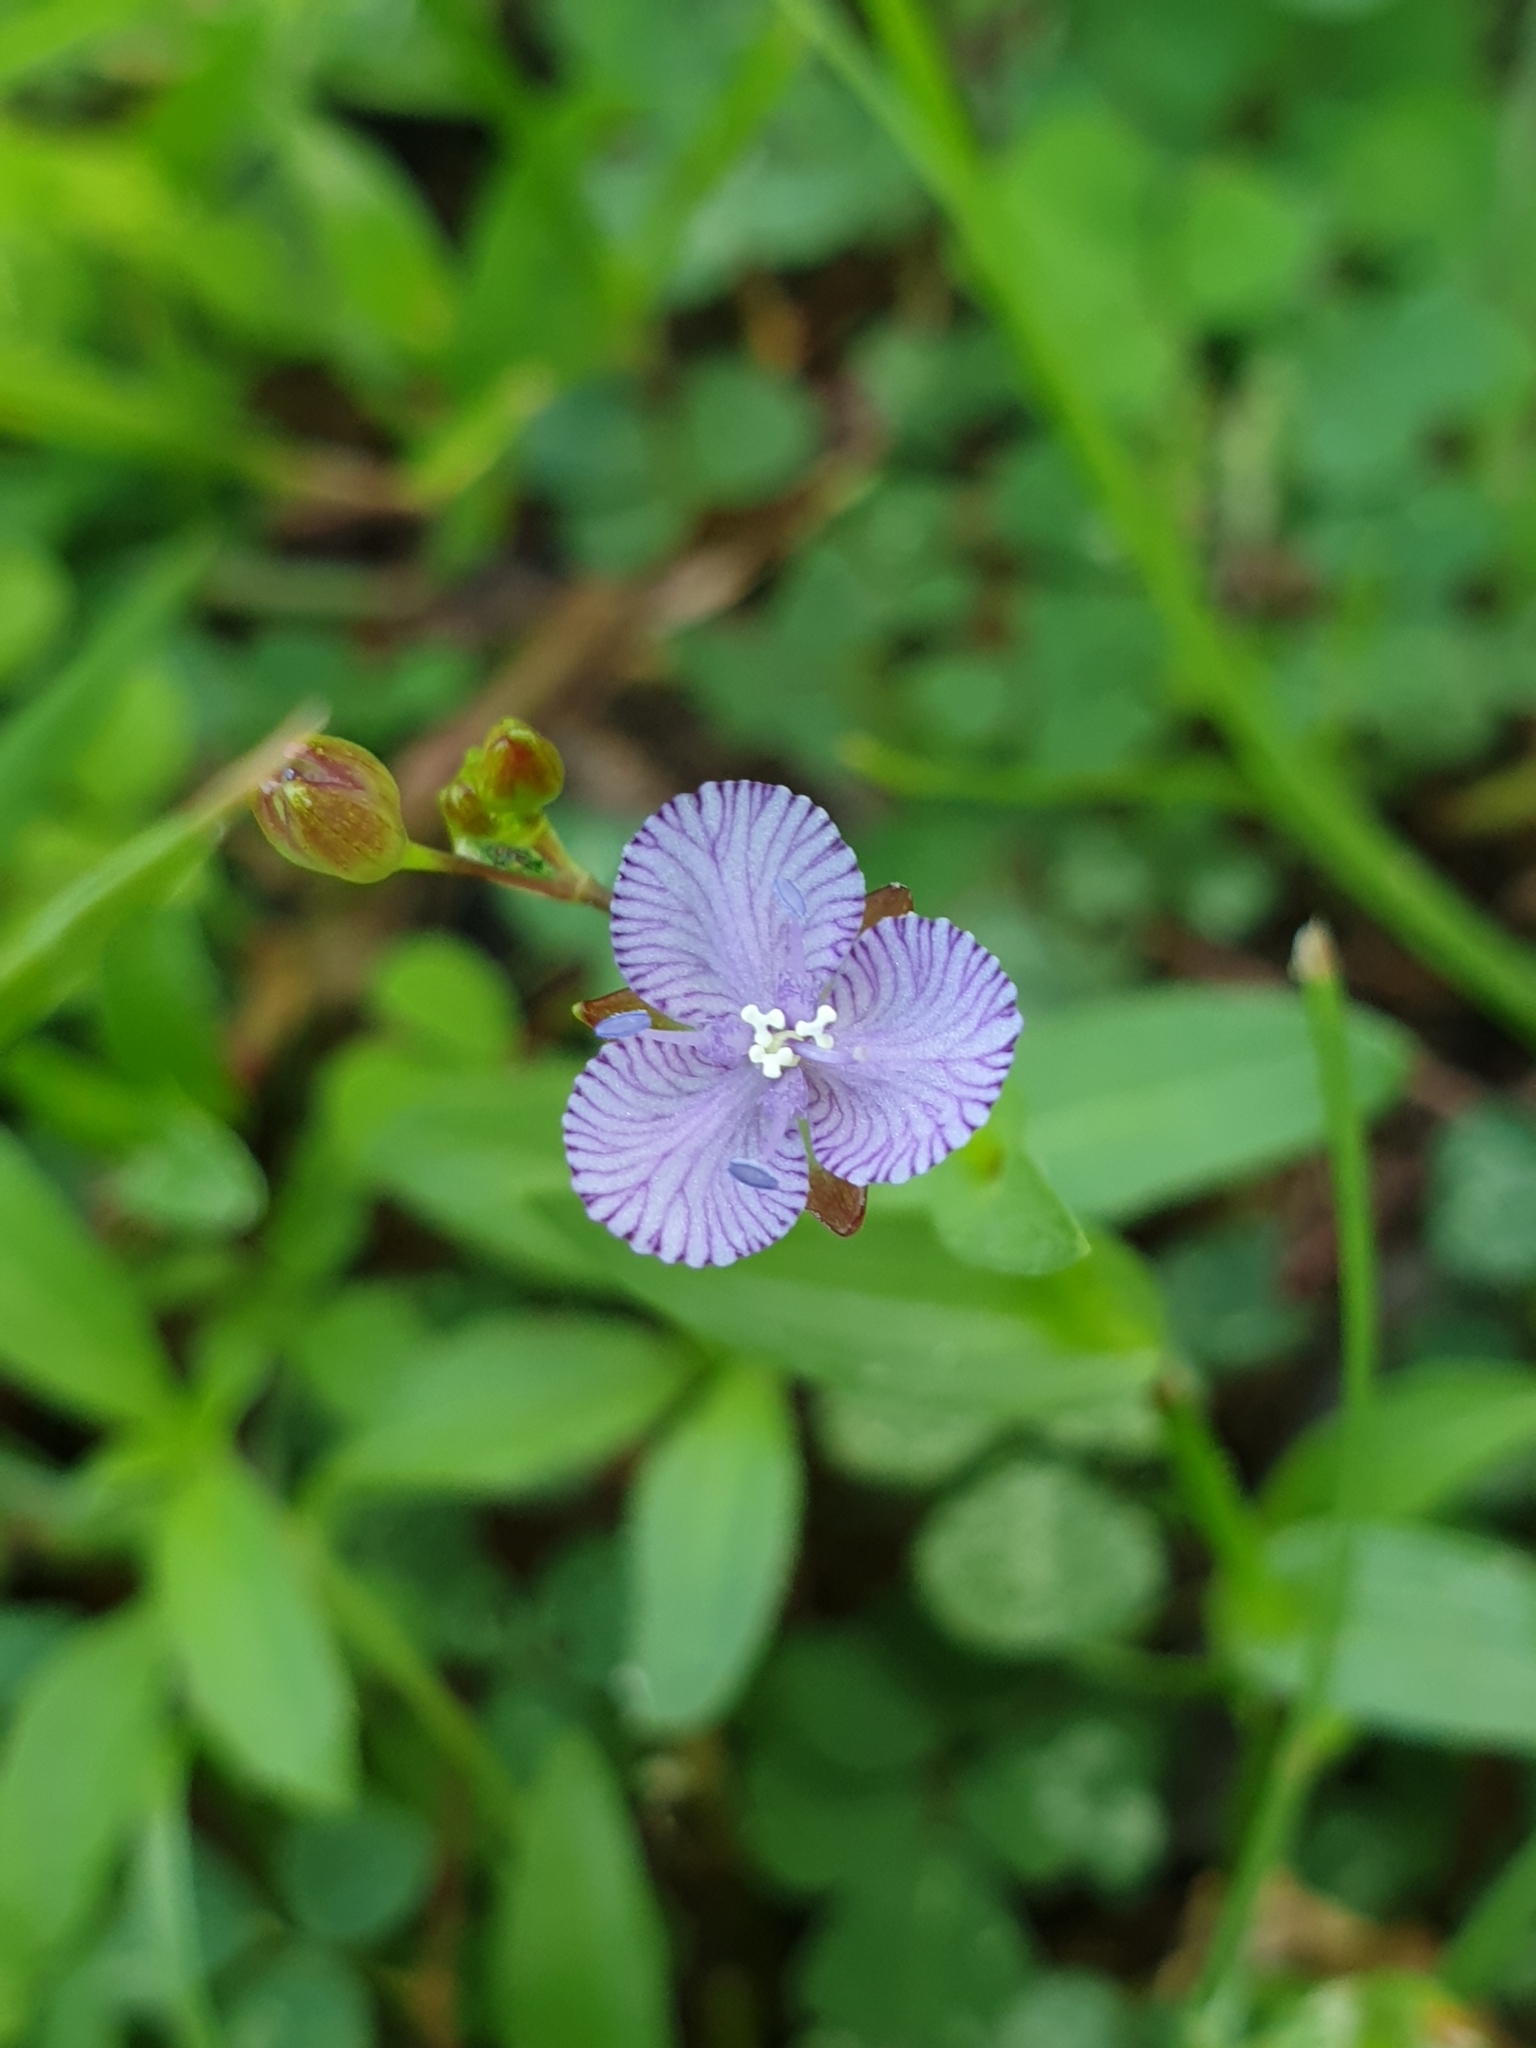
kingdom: Plantae
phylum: Tracheophyta
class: Liliopsida
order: Commelinales
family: Commelinaceae
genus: Murdannia
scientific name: Murdannia striatipetala
